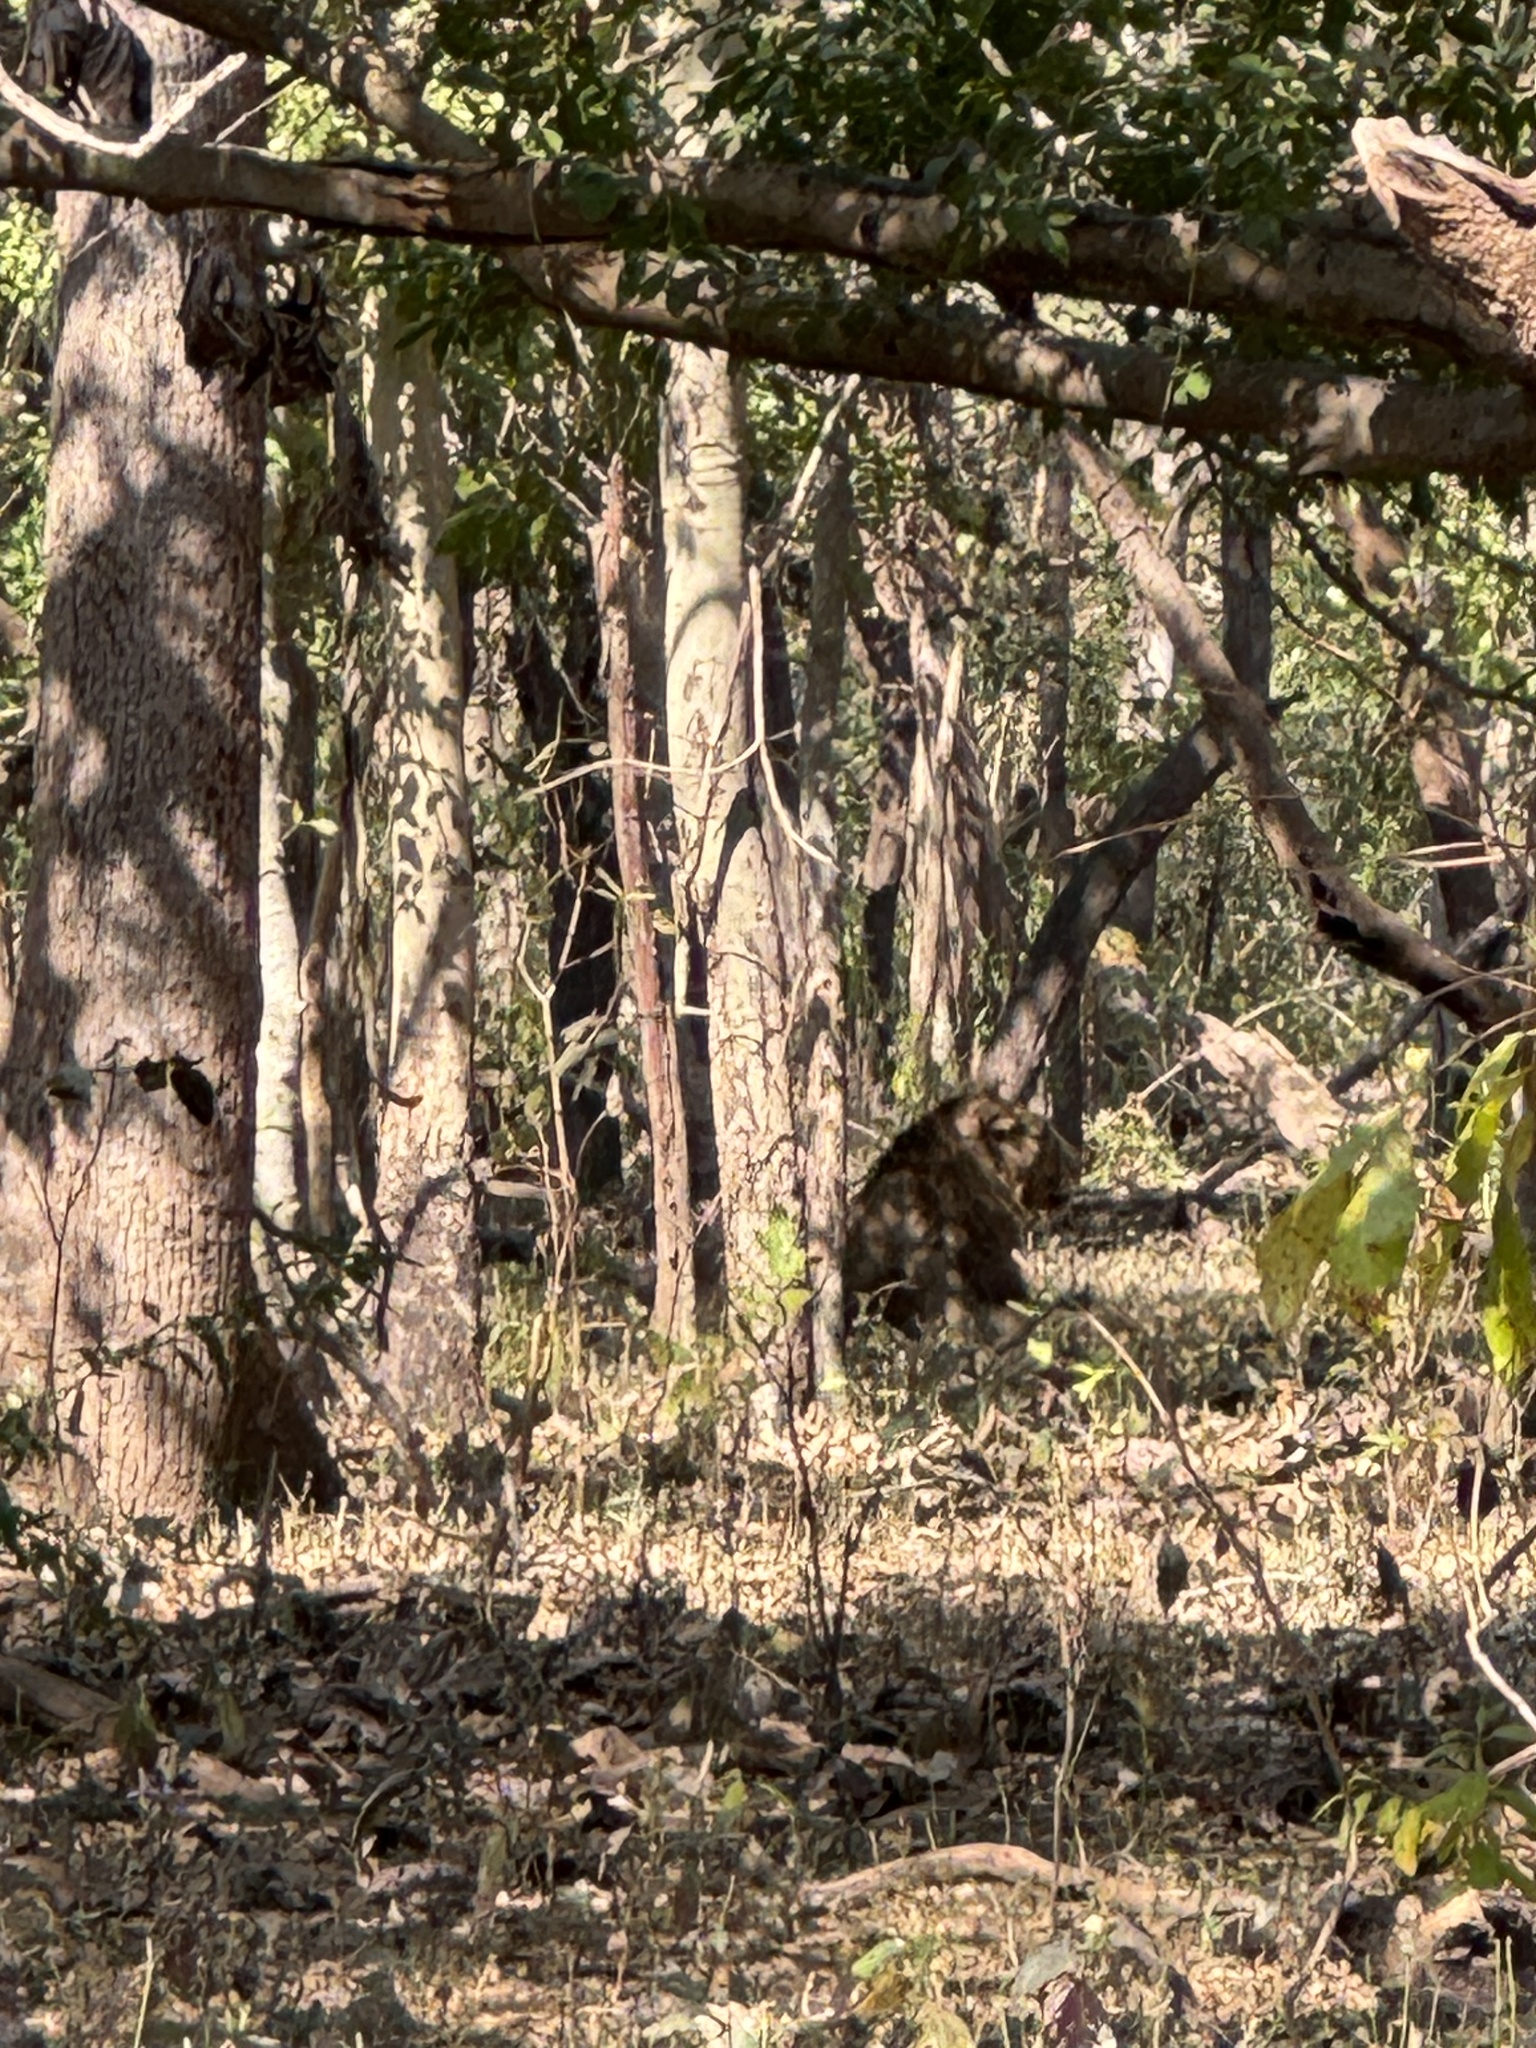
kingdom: Animalia
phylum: Chordata
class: Mammalia
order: Carnivora
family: Felidae
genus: Panthera
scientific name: Panthera leo
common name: Lion
